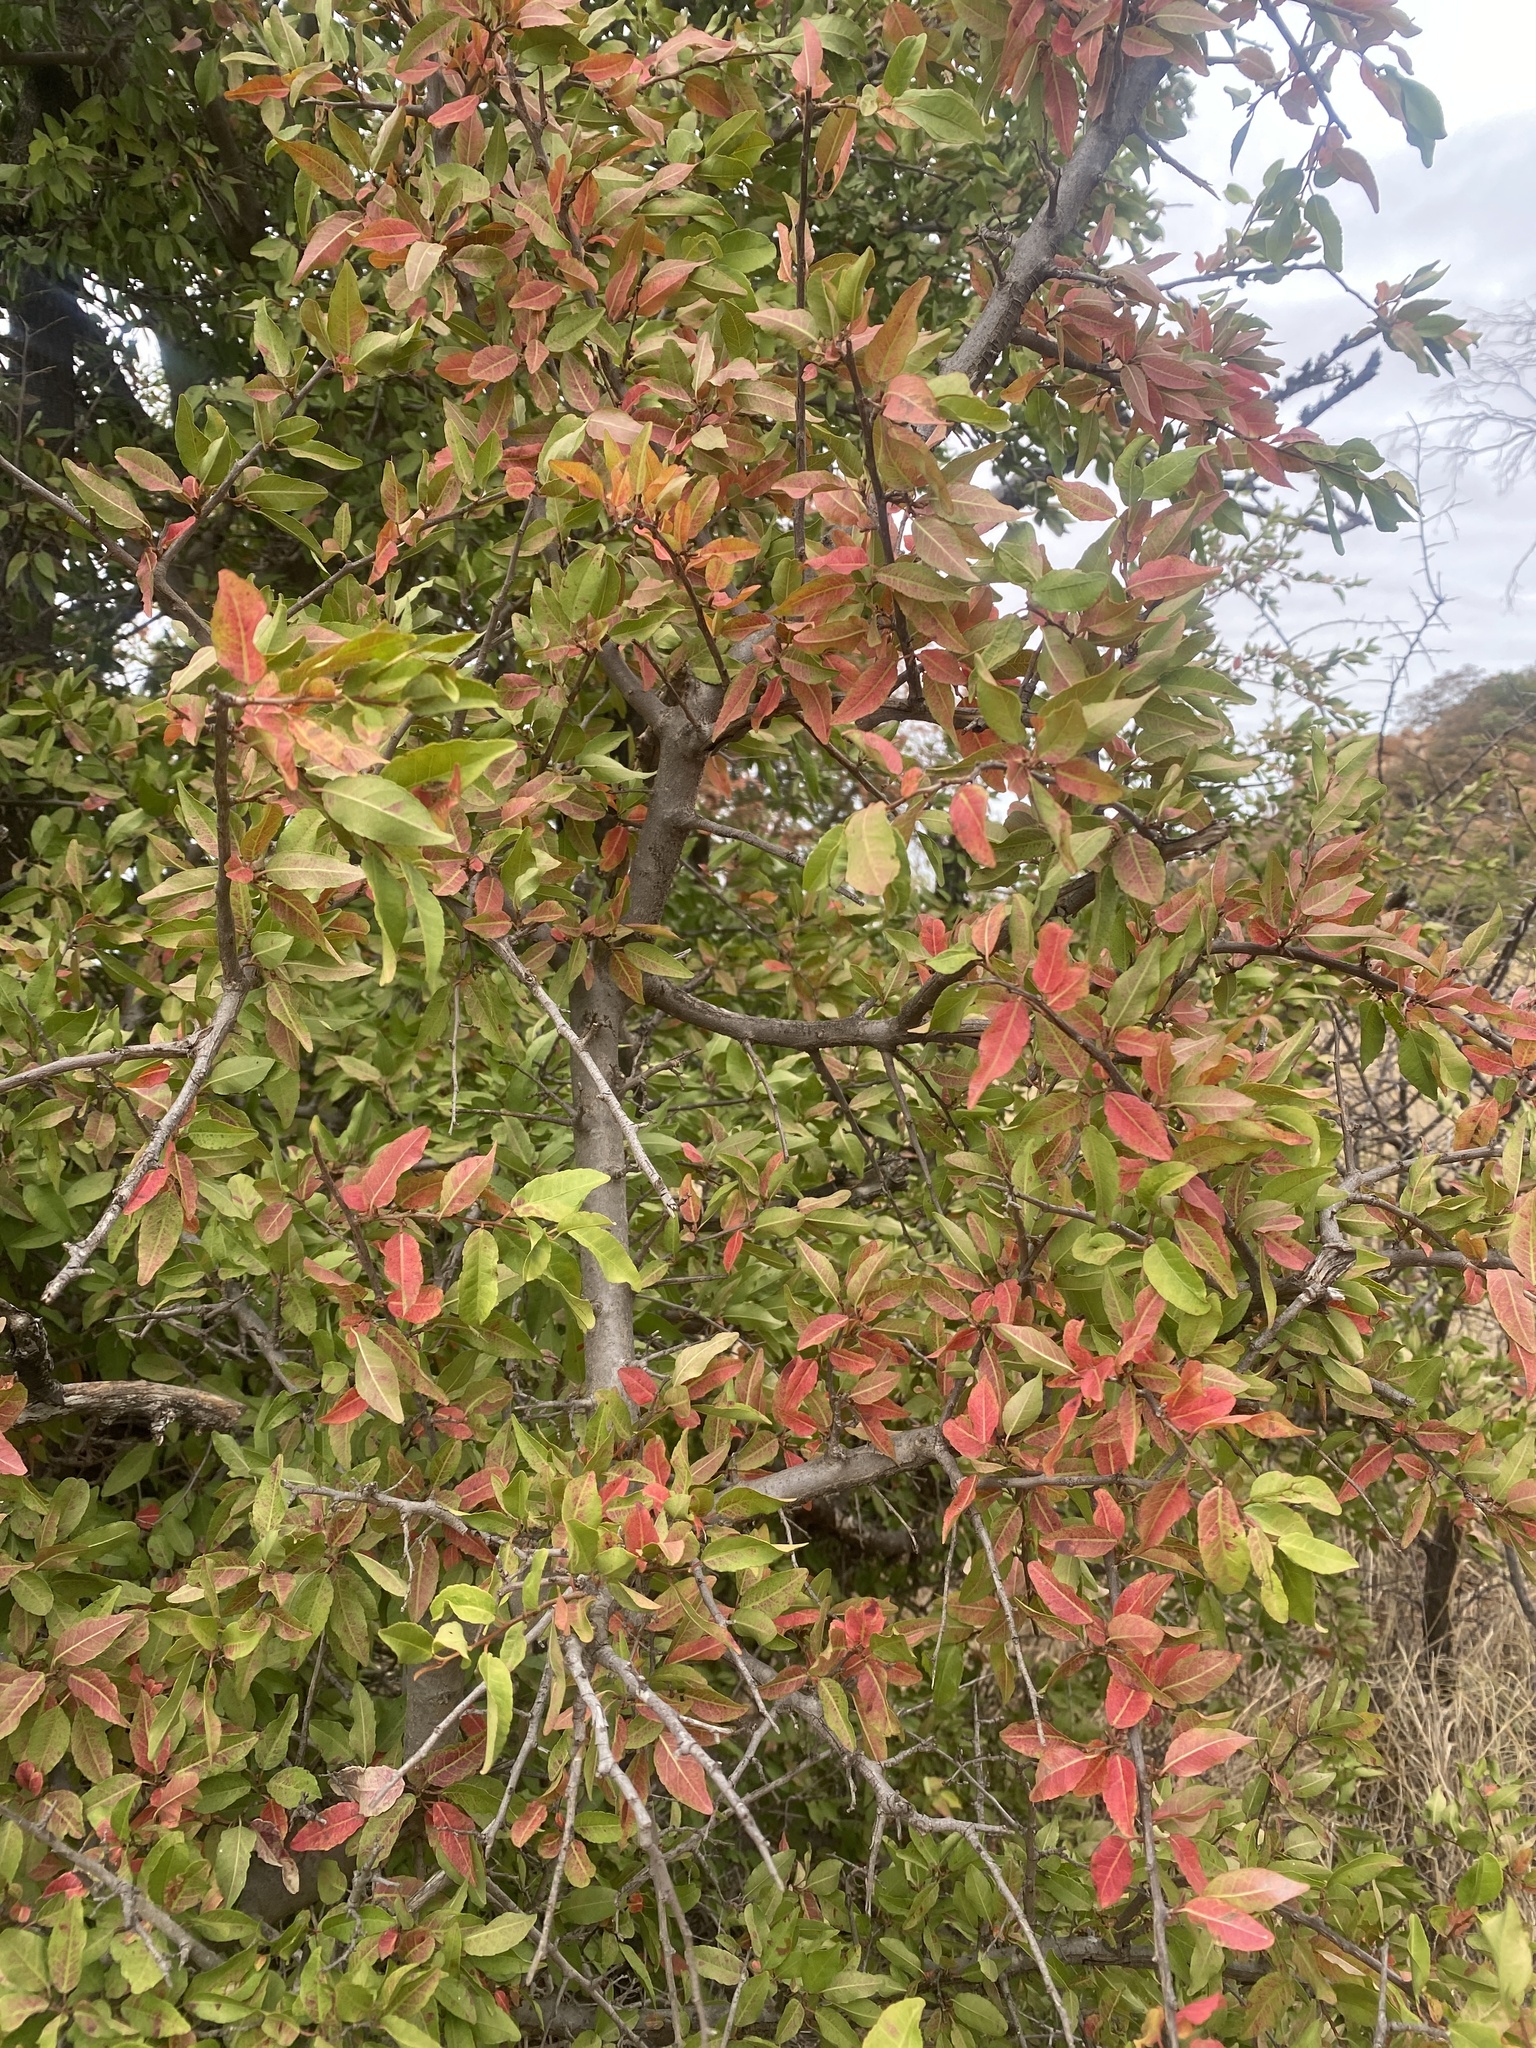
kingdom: Plantae
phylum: Tracheophyta
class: Magnoliopsida
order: Malpighiales
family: Euphorbiaceae
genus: Spirostachys
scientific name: Spirostachys africana
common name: Tamboti
